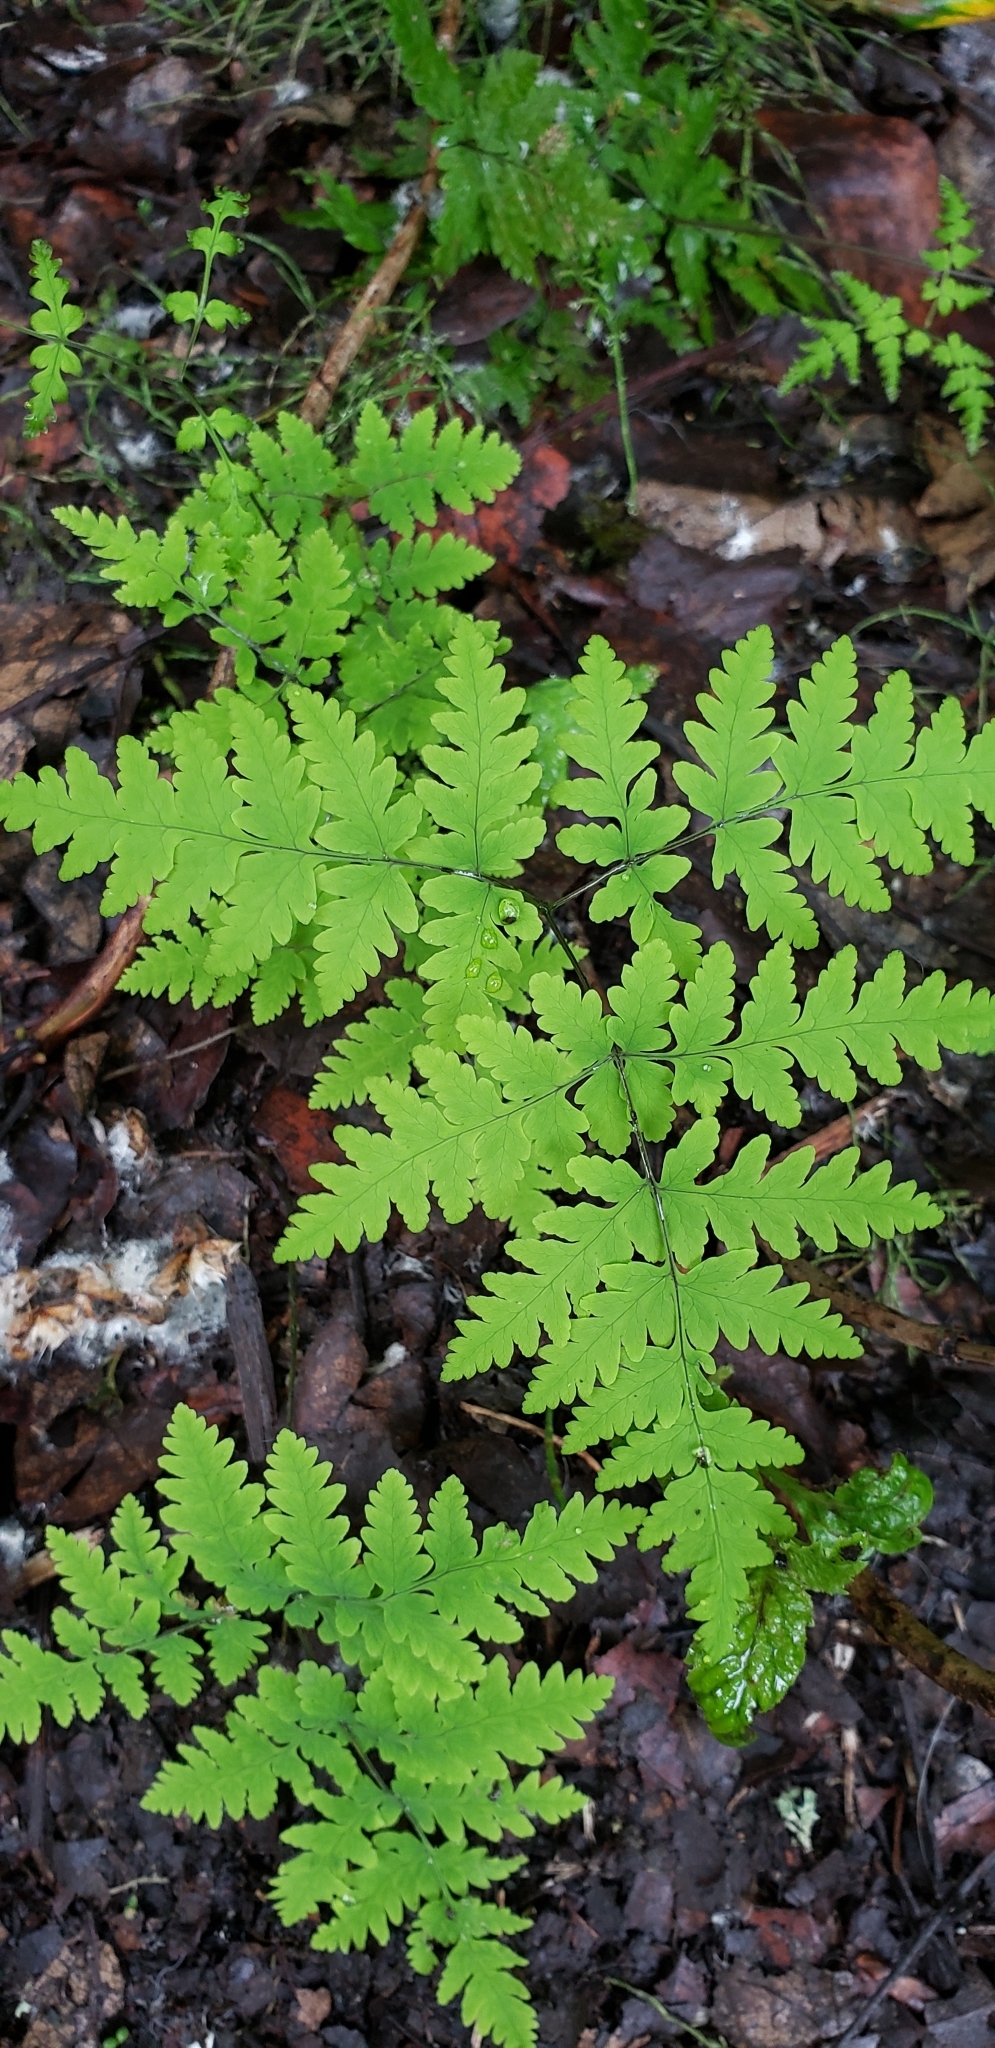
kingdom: Plantae
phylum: Tracheophyta
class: Polypodiopsida
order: Polypodiales
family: Cystopteridaceae
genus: Gymnocarpium
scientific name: Gymnocarpium dryopteris
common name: Oak fern
